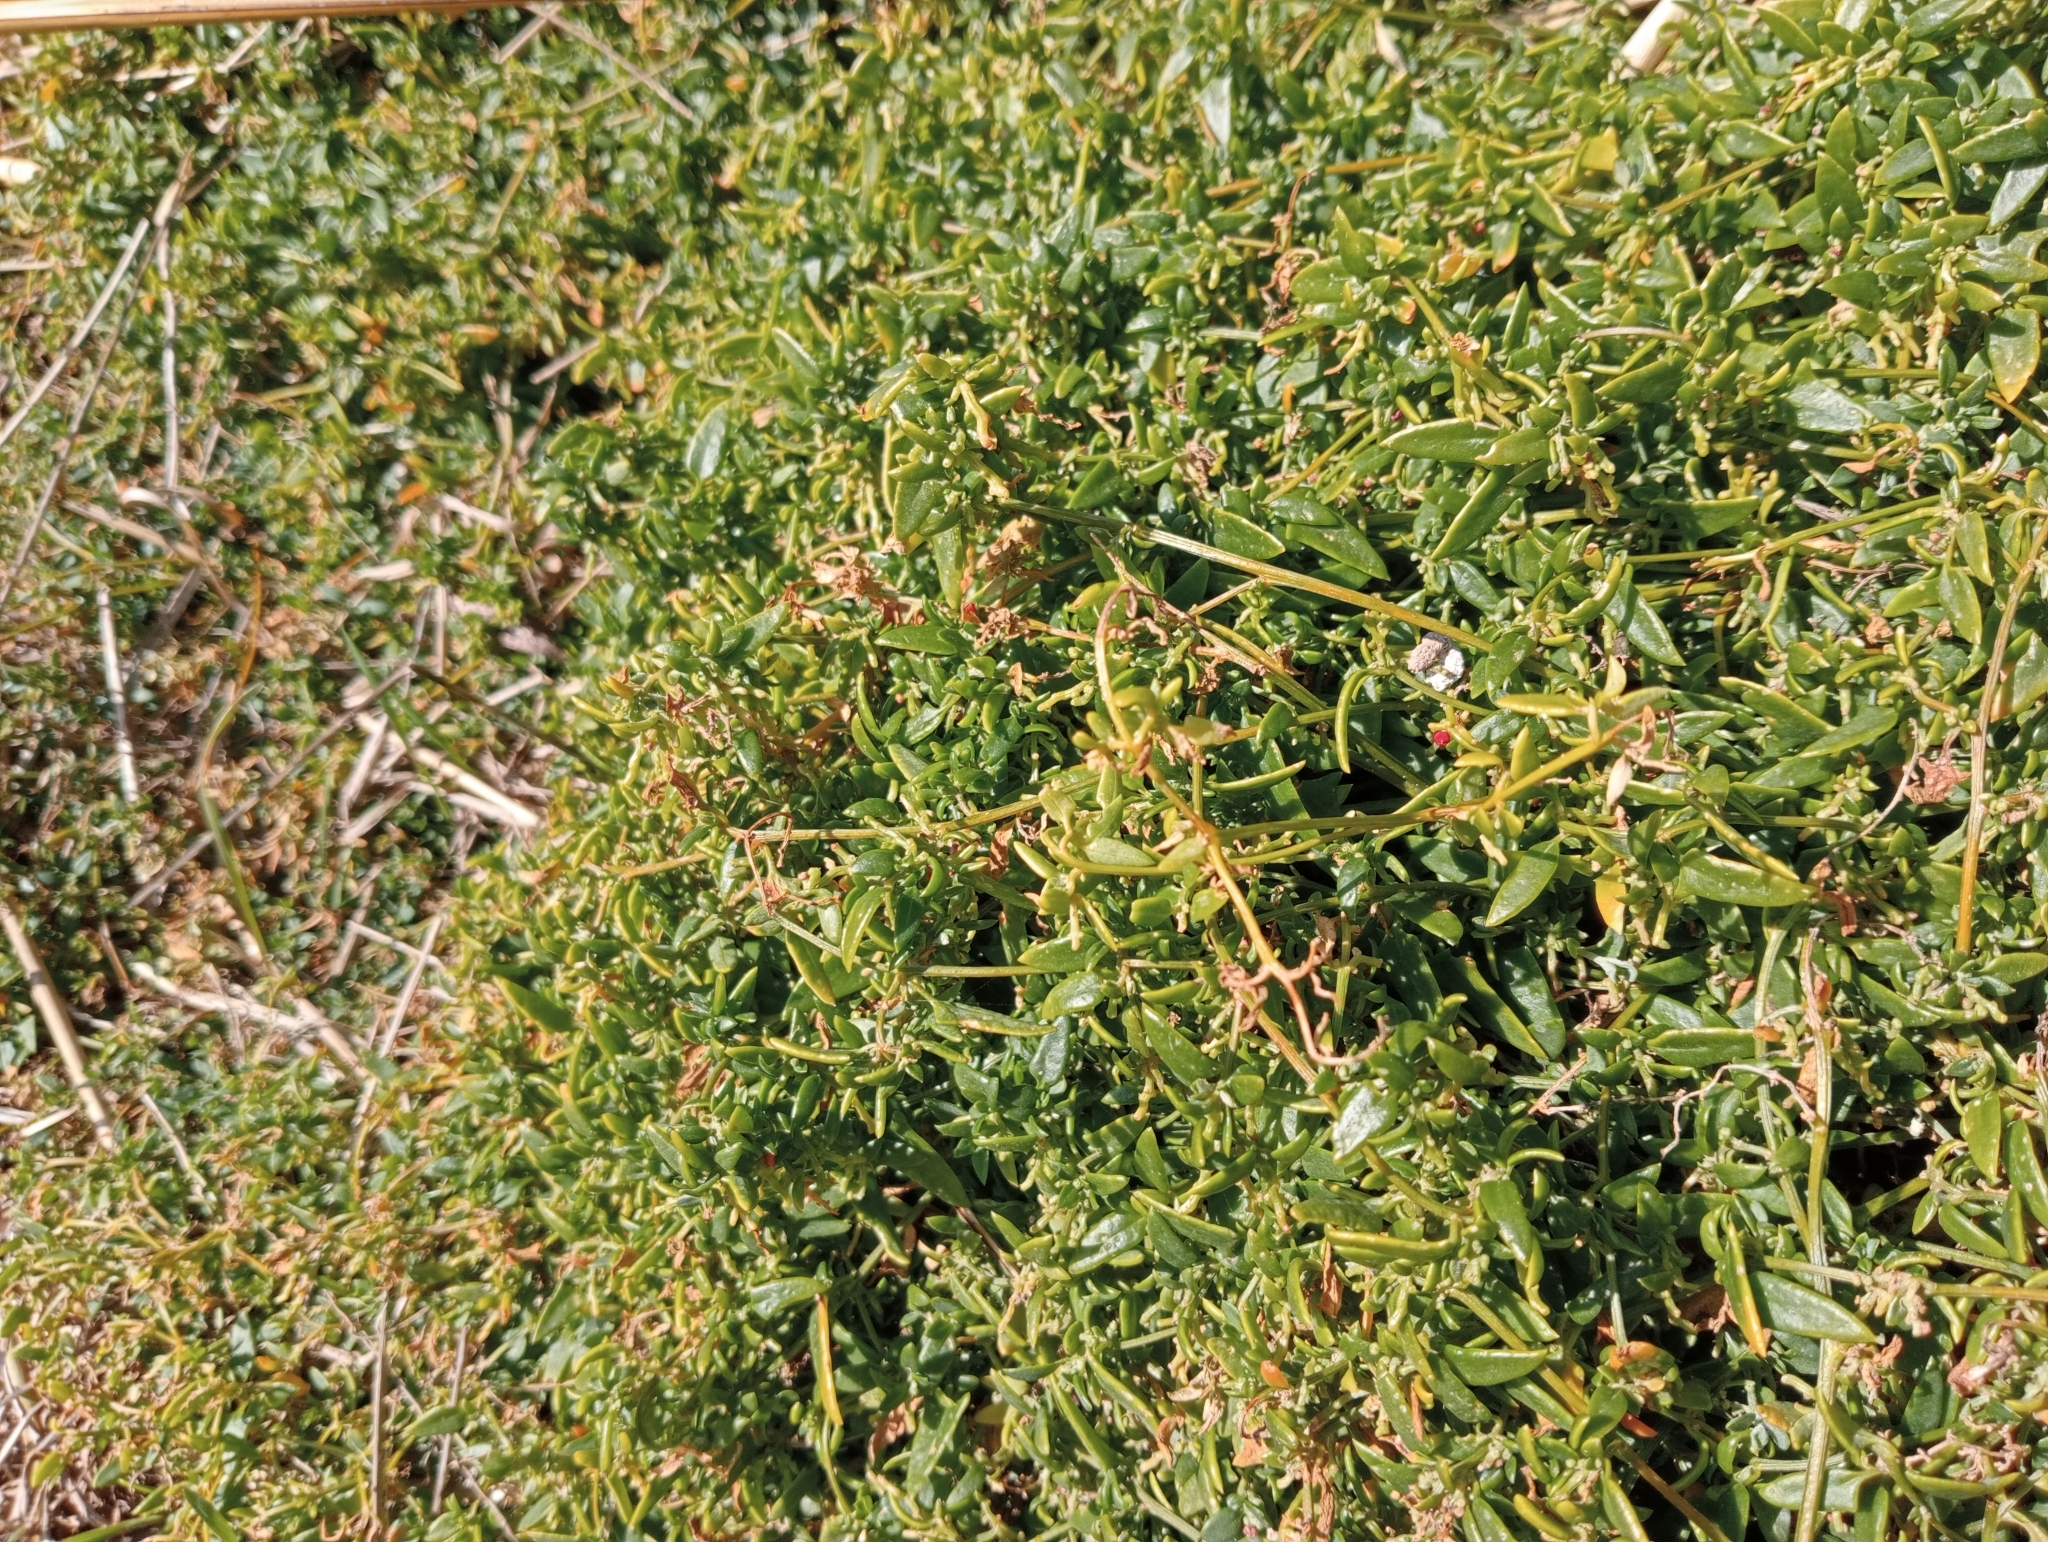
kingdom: Plantae
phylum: Tracheophyta
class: Magnoliopsida
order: Caryophyllales
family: Amaranthaceae
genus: Chenopodium
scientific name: Chenopodium nutans
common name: Climbing-saltbush
